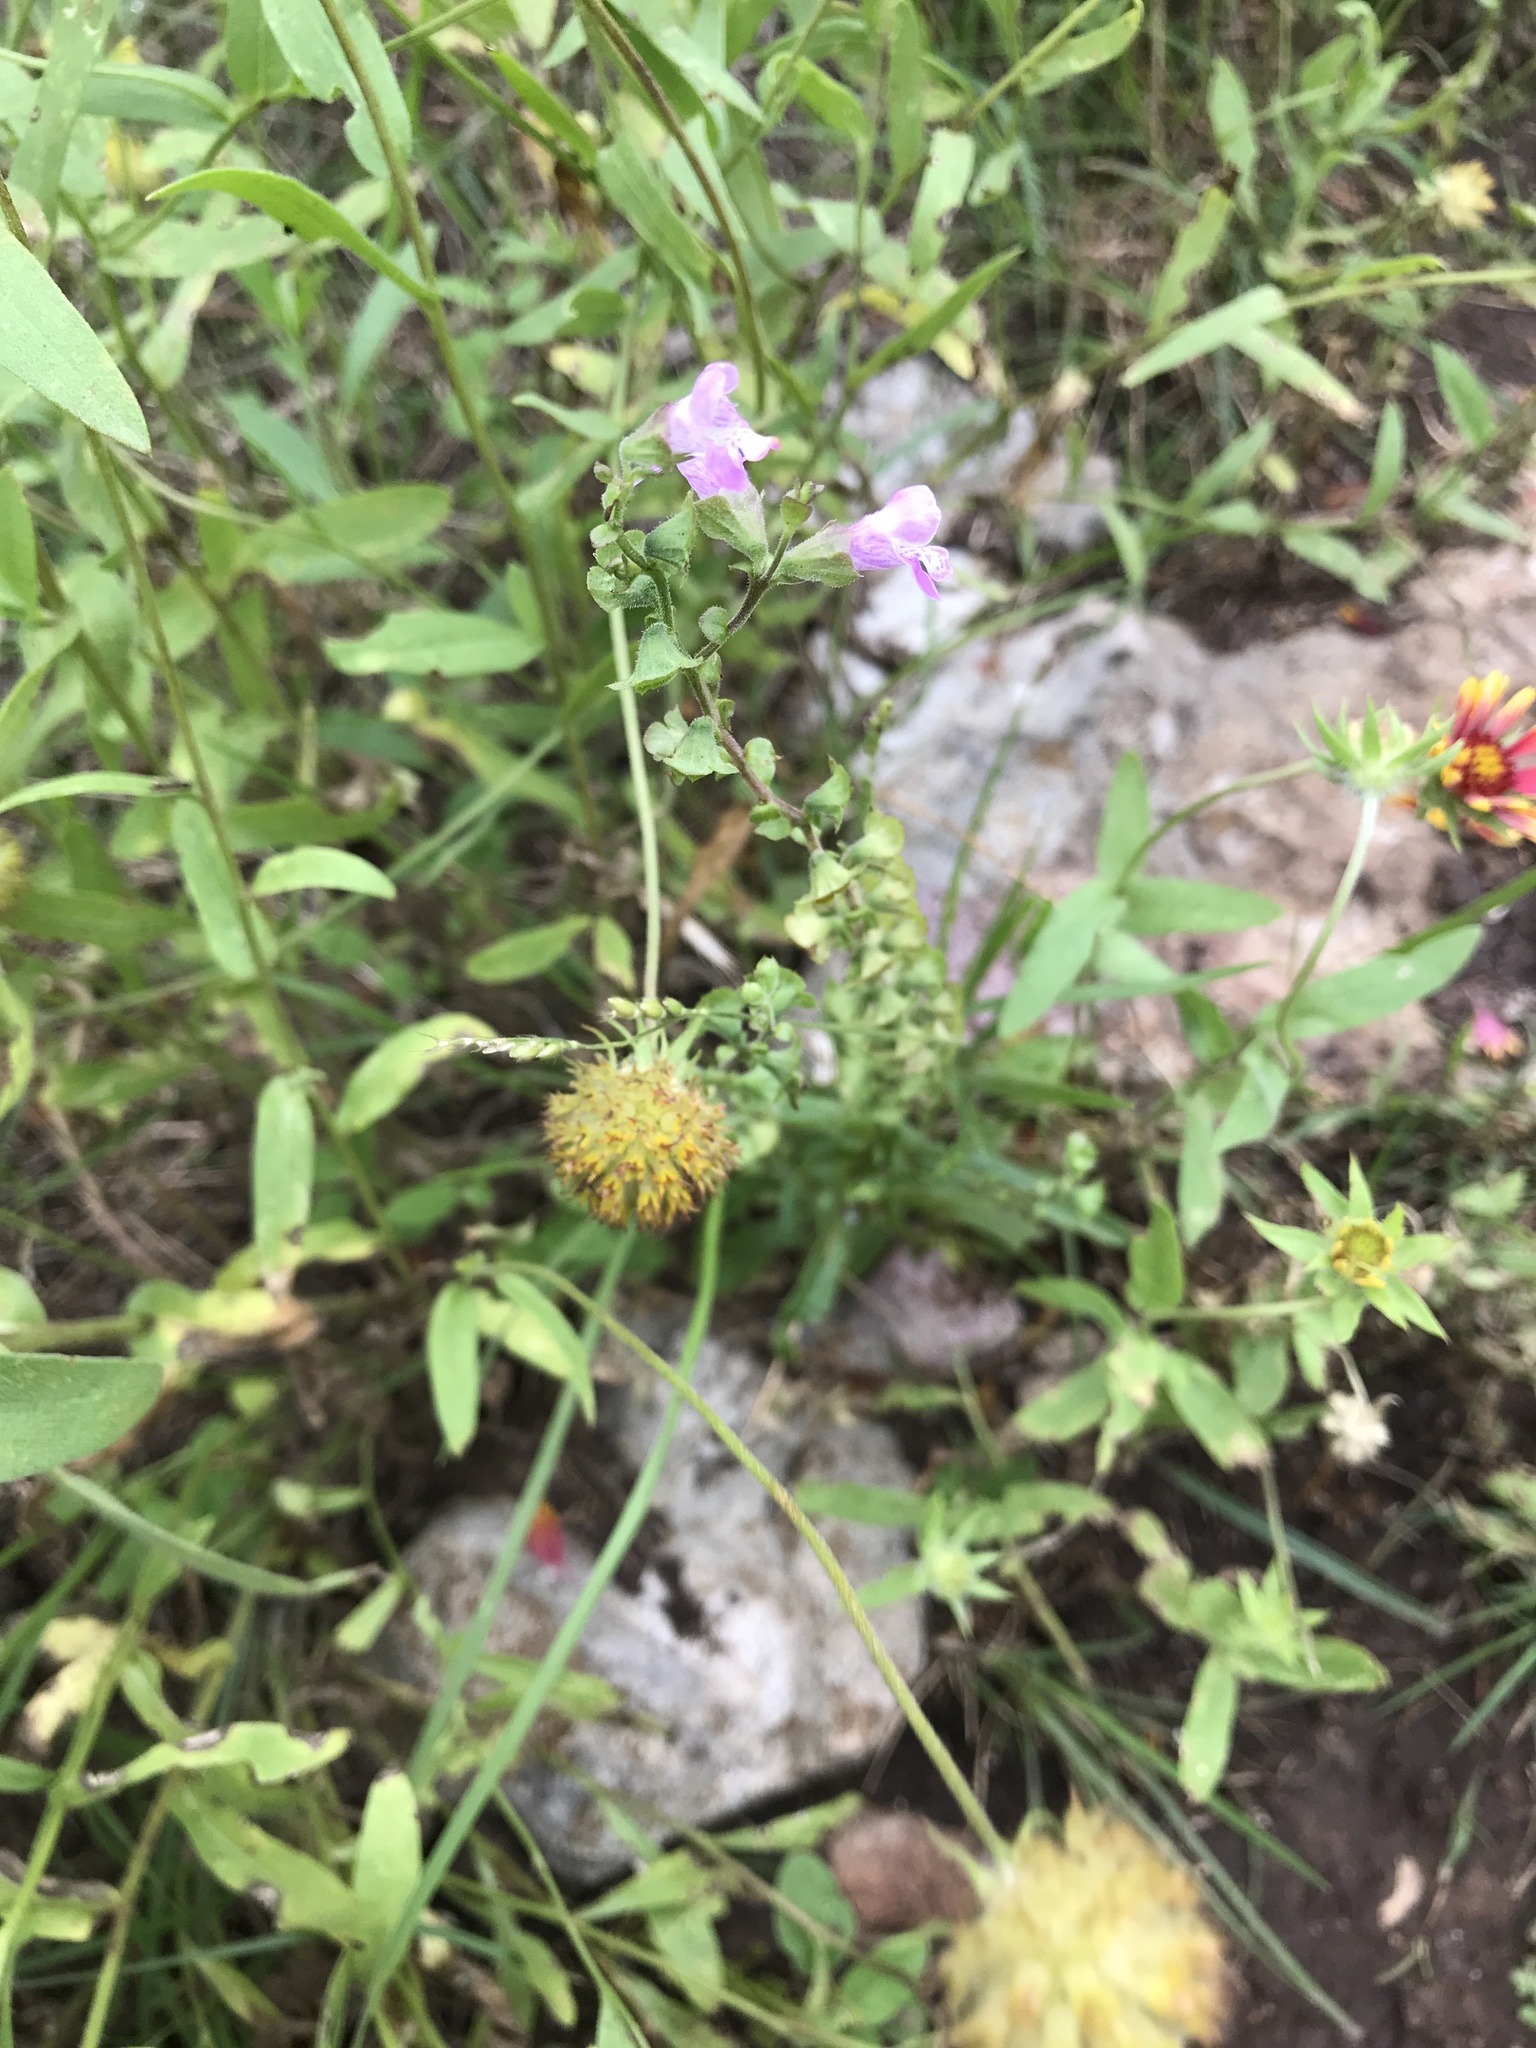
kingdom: Plantae
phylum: Tracheophyta
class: Magnoliopsida
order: Lamiales
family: Lamiaceae
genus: Warnockia
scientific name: Warnockia scutellarioides
